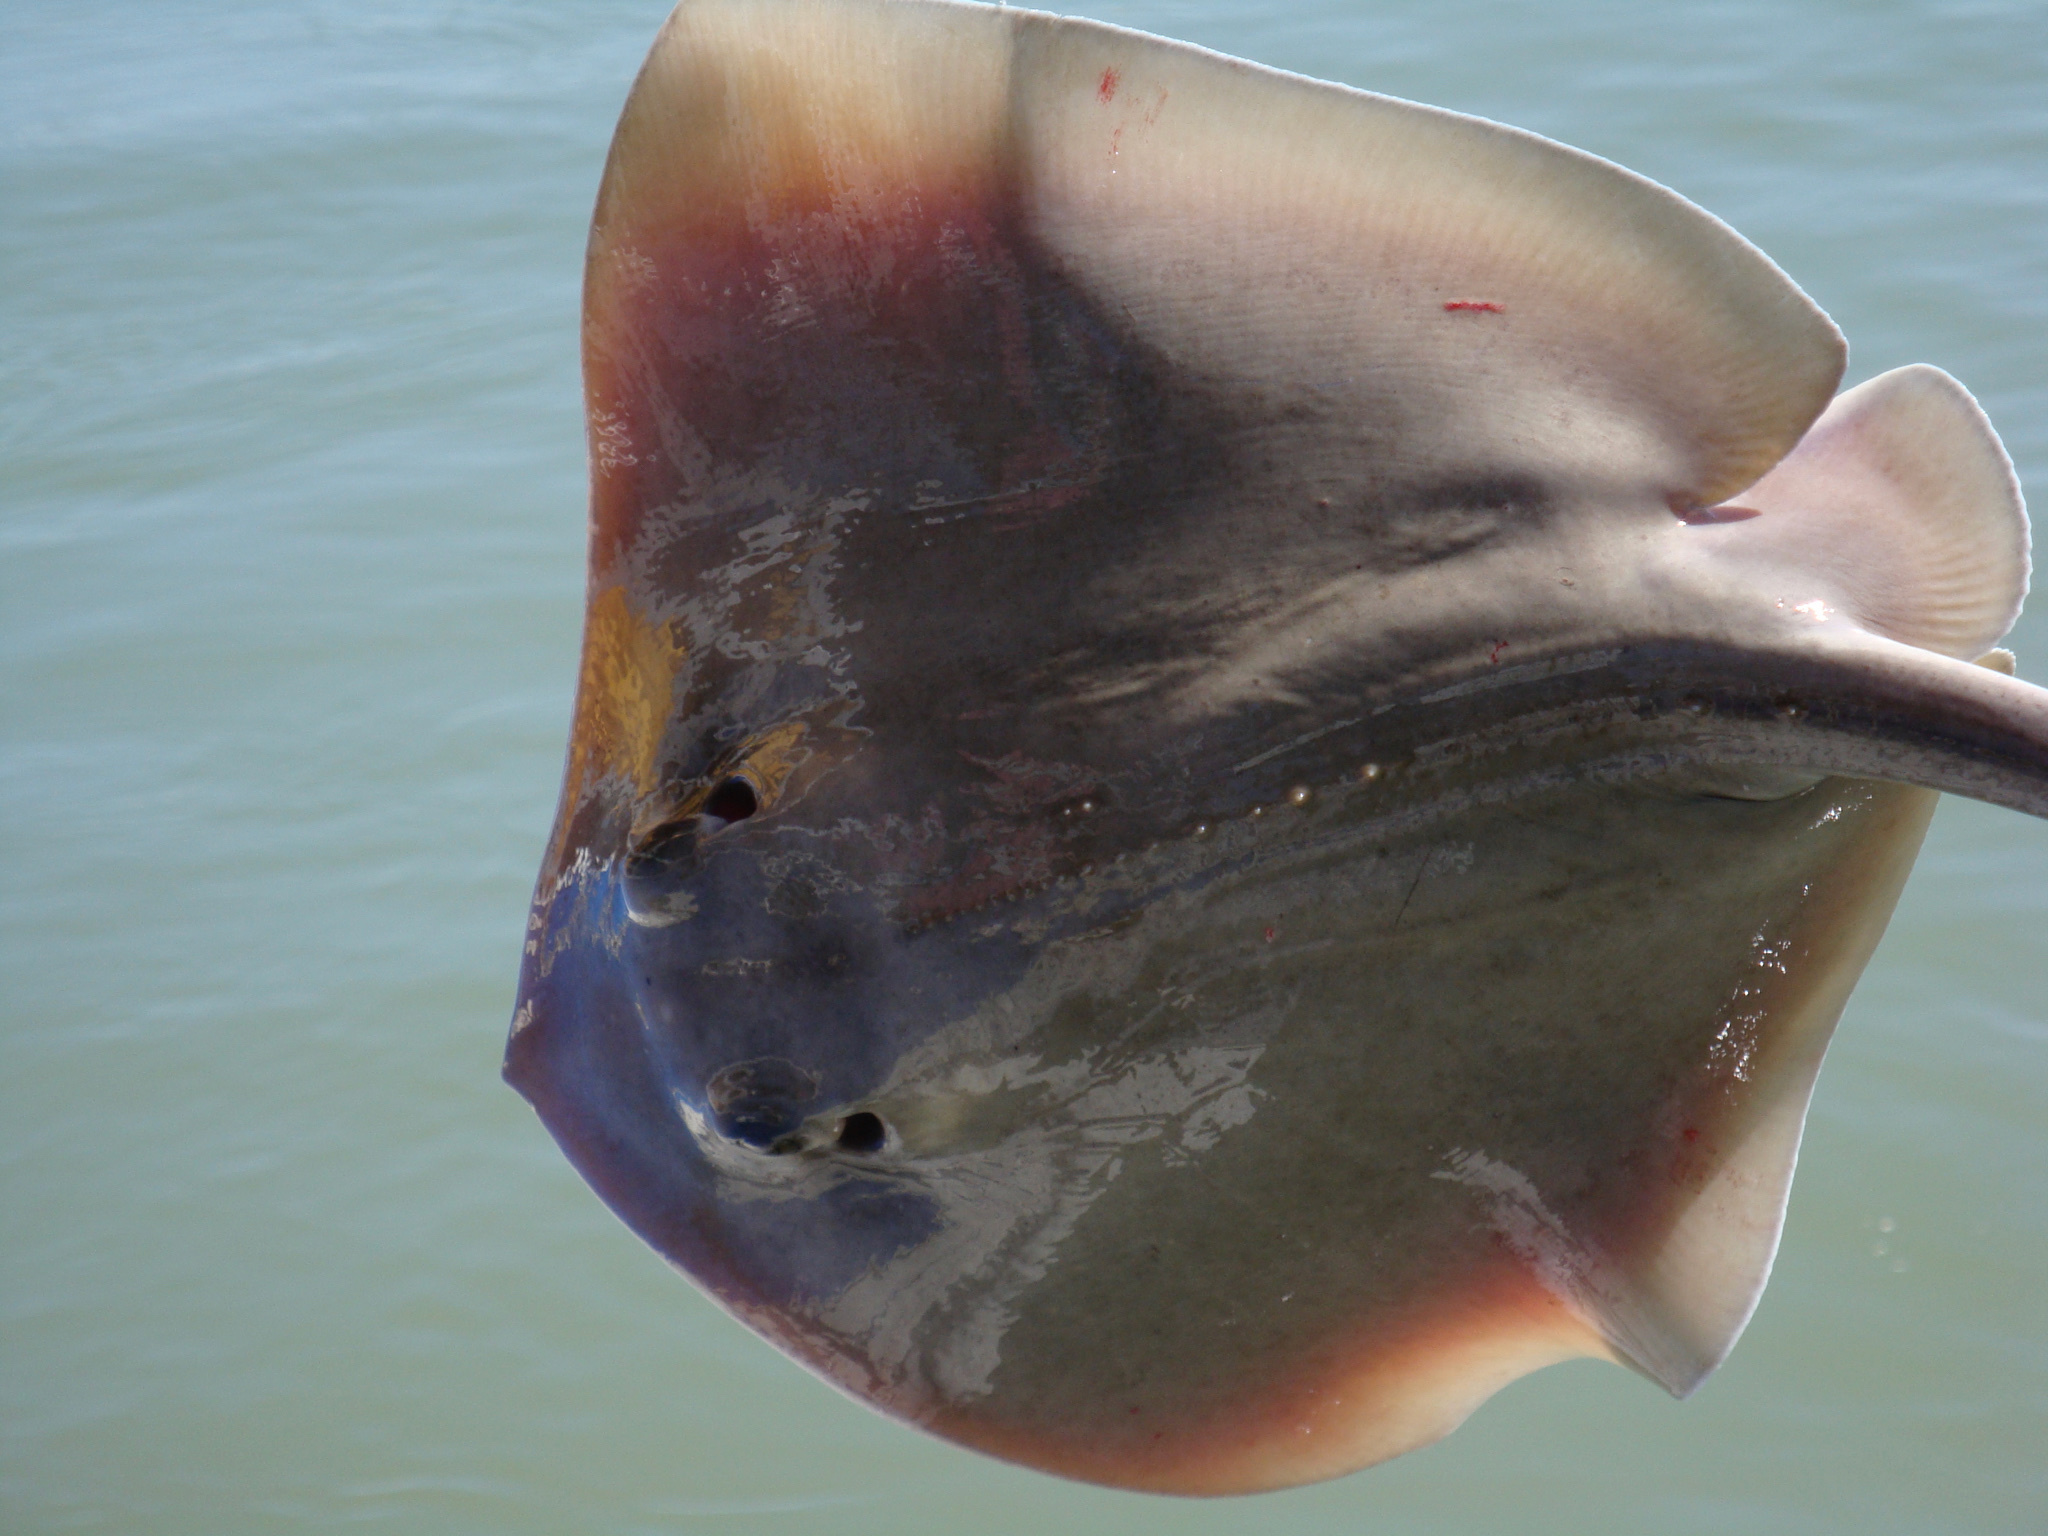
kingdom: Animalia
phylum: Chordata
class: Elasmobranchii
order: Myliobatiformes
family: Dasyatidae
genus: Hypanus
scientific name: Hypanus americanus
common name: Southern stingray
